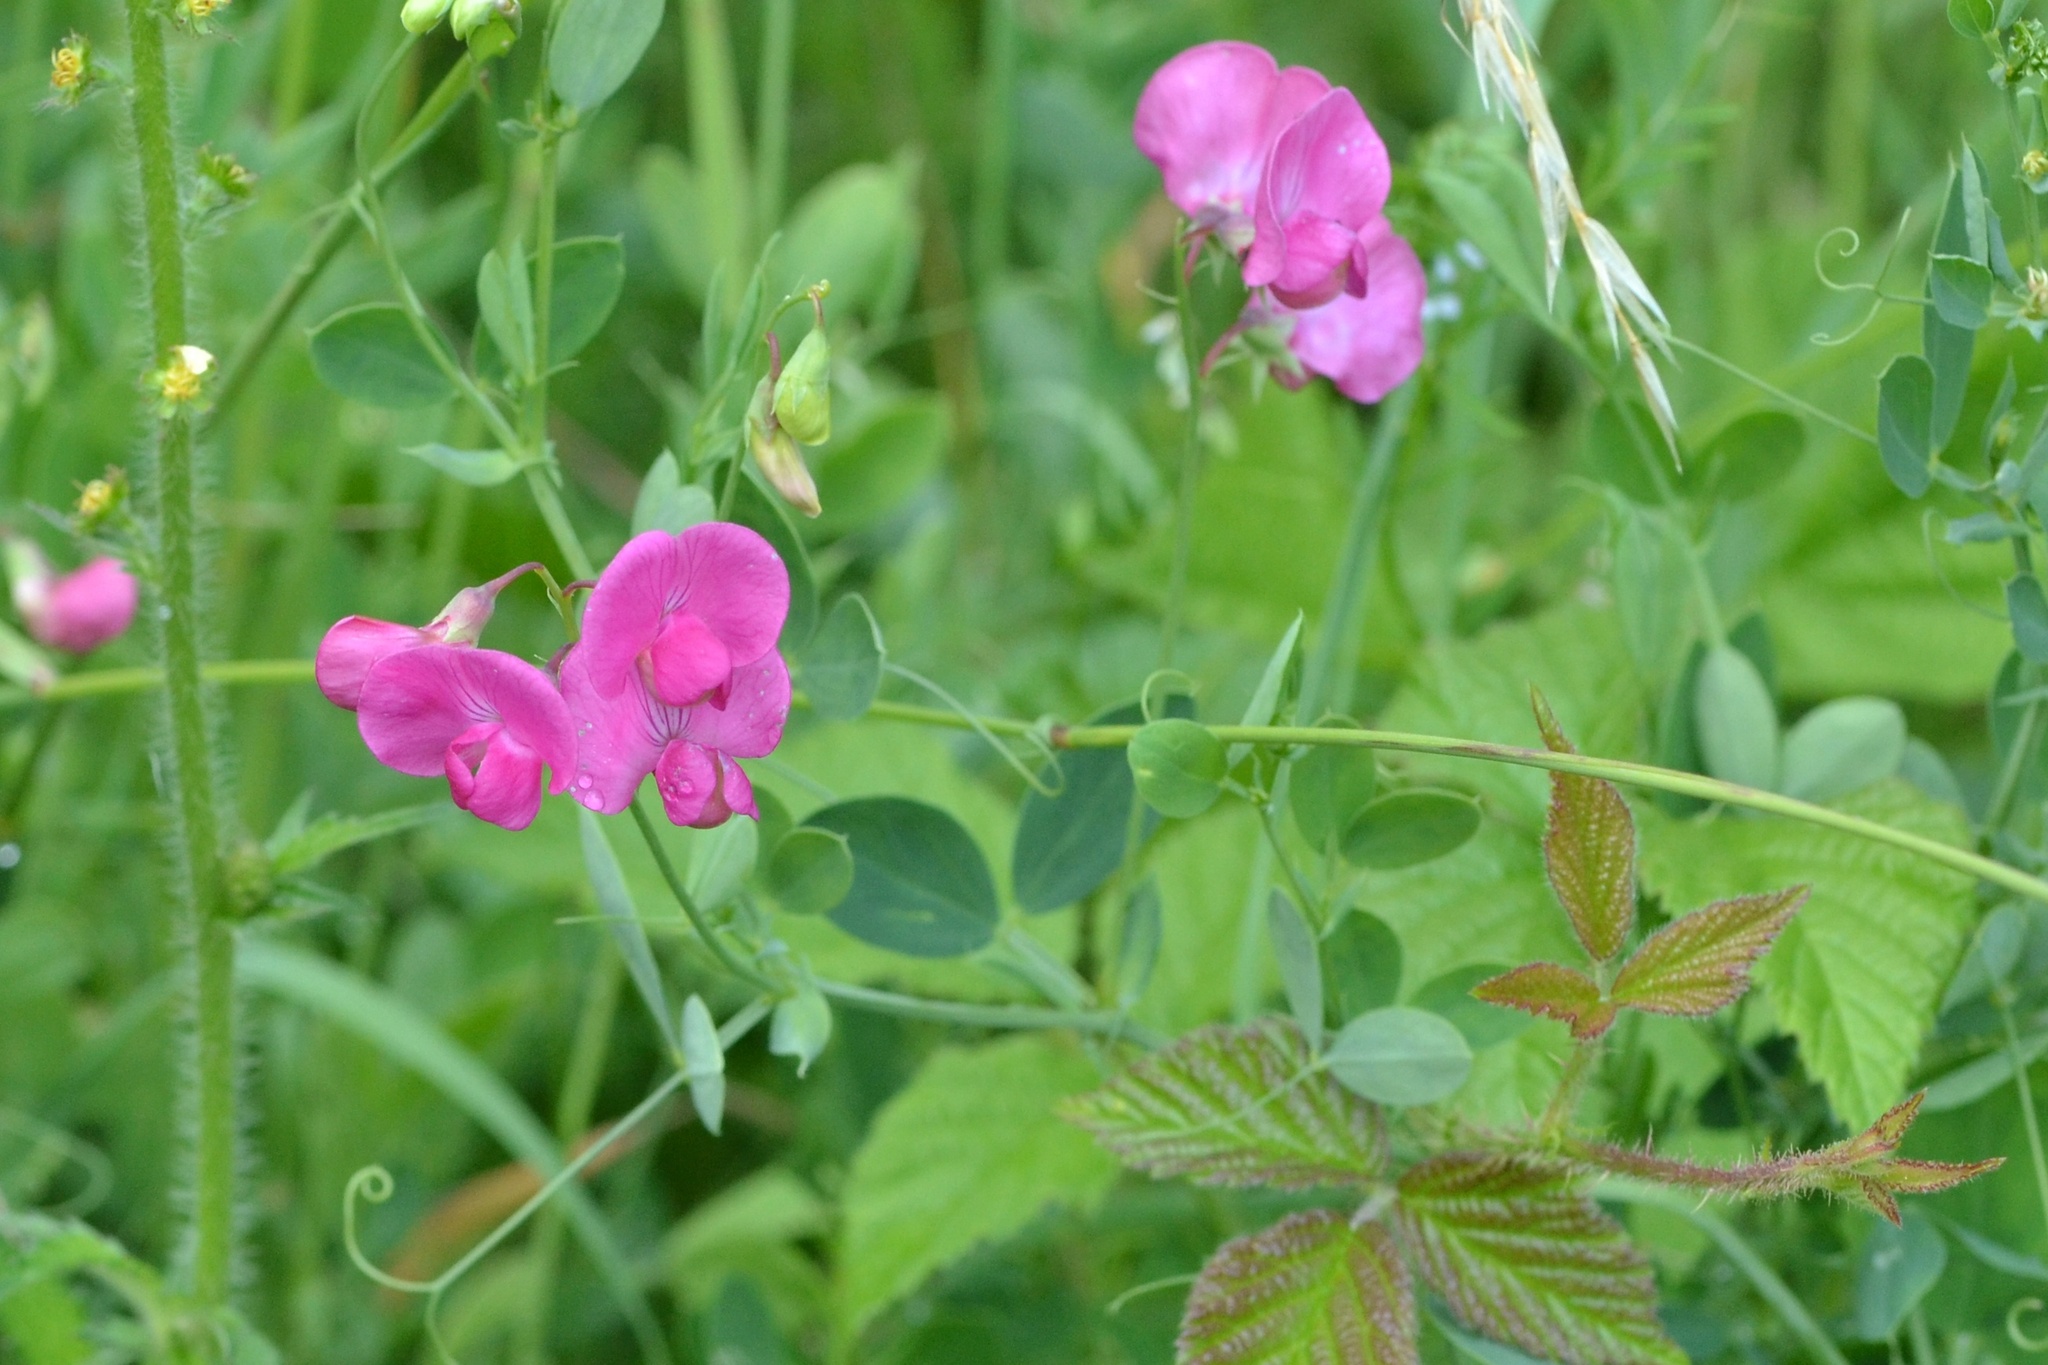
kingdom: Plantae
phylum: Tracheophyta
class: Magnoliopsida
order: Fabales
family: Fabaceae
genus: Lathyrus
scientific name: Lathyrus tuberosus
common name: Tuberous pea
